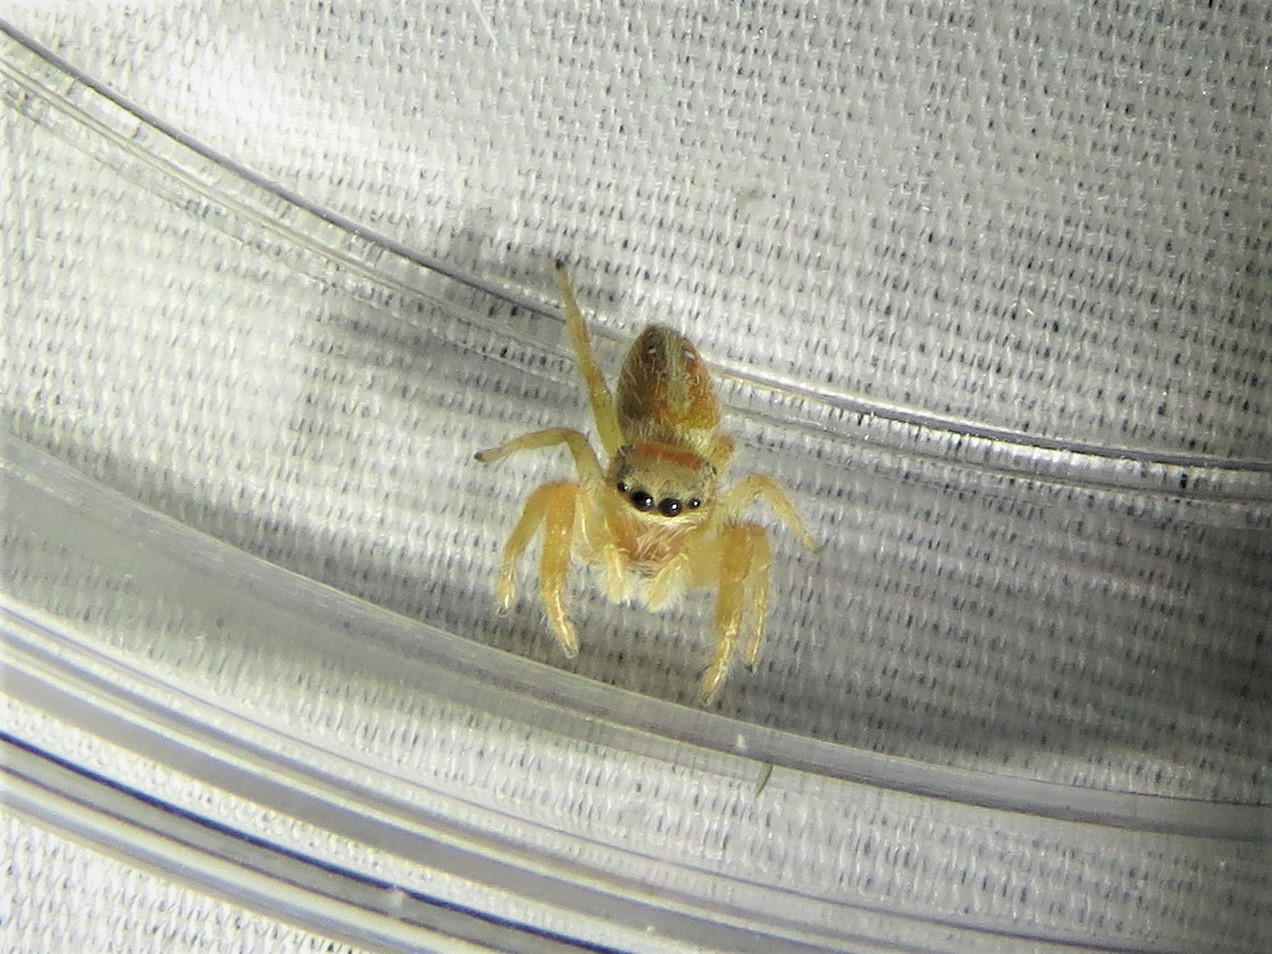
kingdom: Animalia
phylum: Arthropoda
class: Arachnida
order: Araneae
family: Salticidae
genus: Phidippus
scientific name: Phidippus cardinalis
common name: Cardinal jumper
